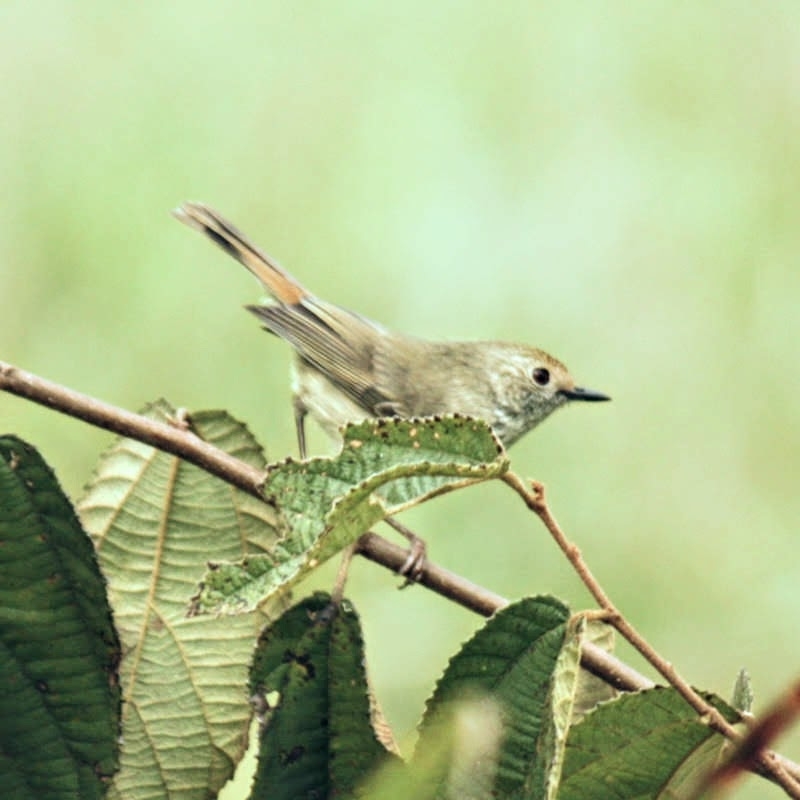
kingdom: Animalia
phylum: Chordata
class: Aves
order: Passeriformes
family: Acanthizidae
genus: Acanthiza
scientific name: Acanthiza pusilla
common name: Brown thornbill
